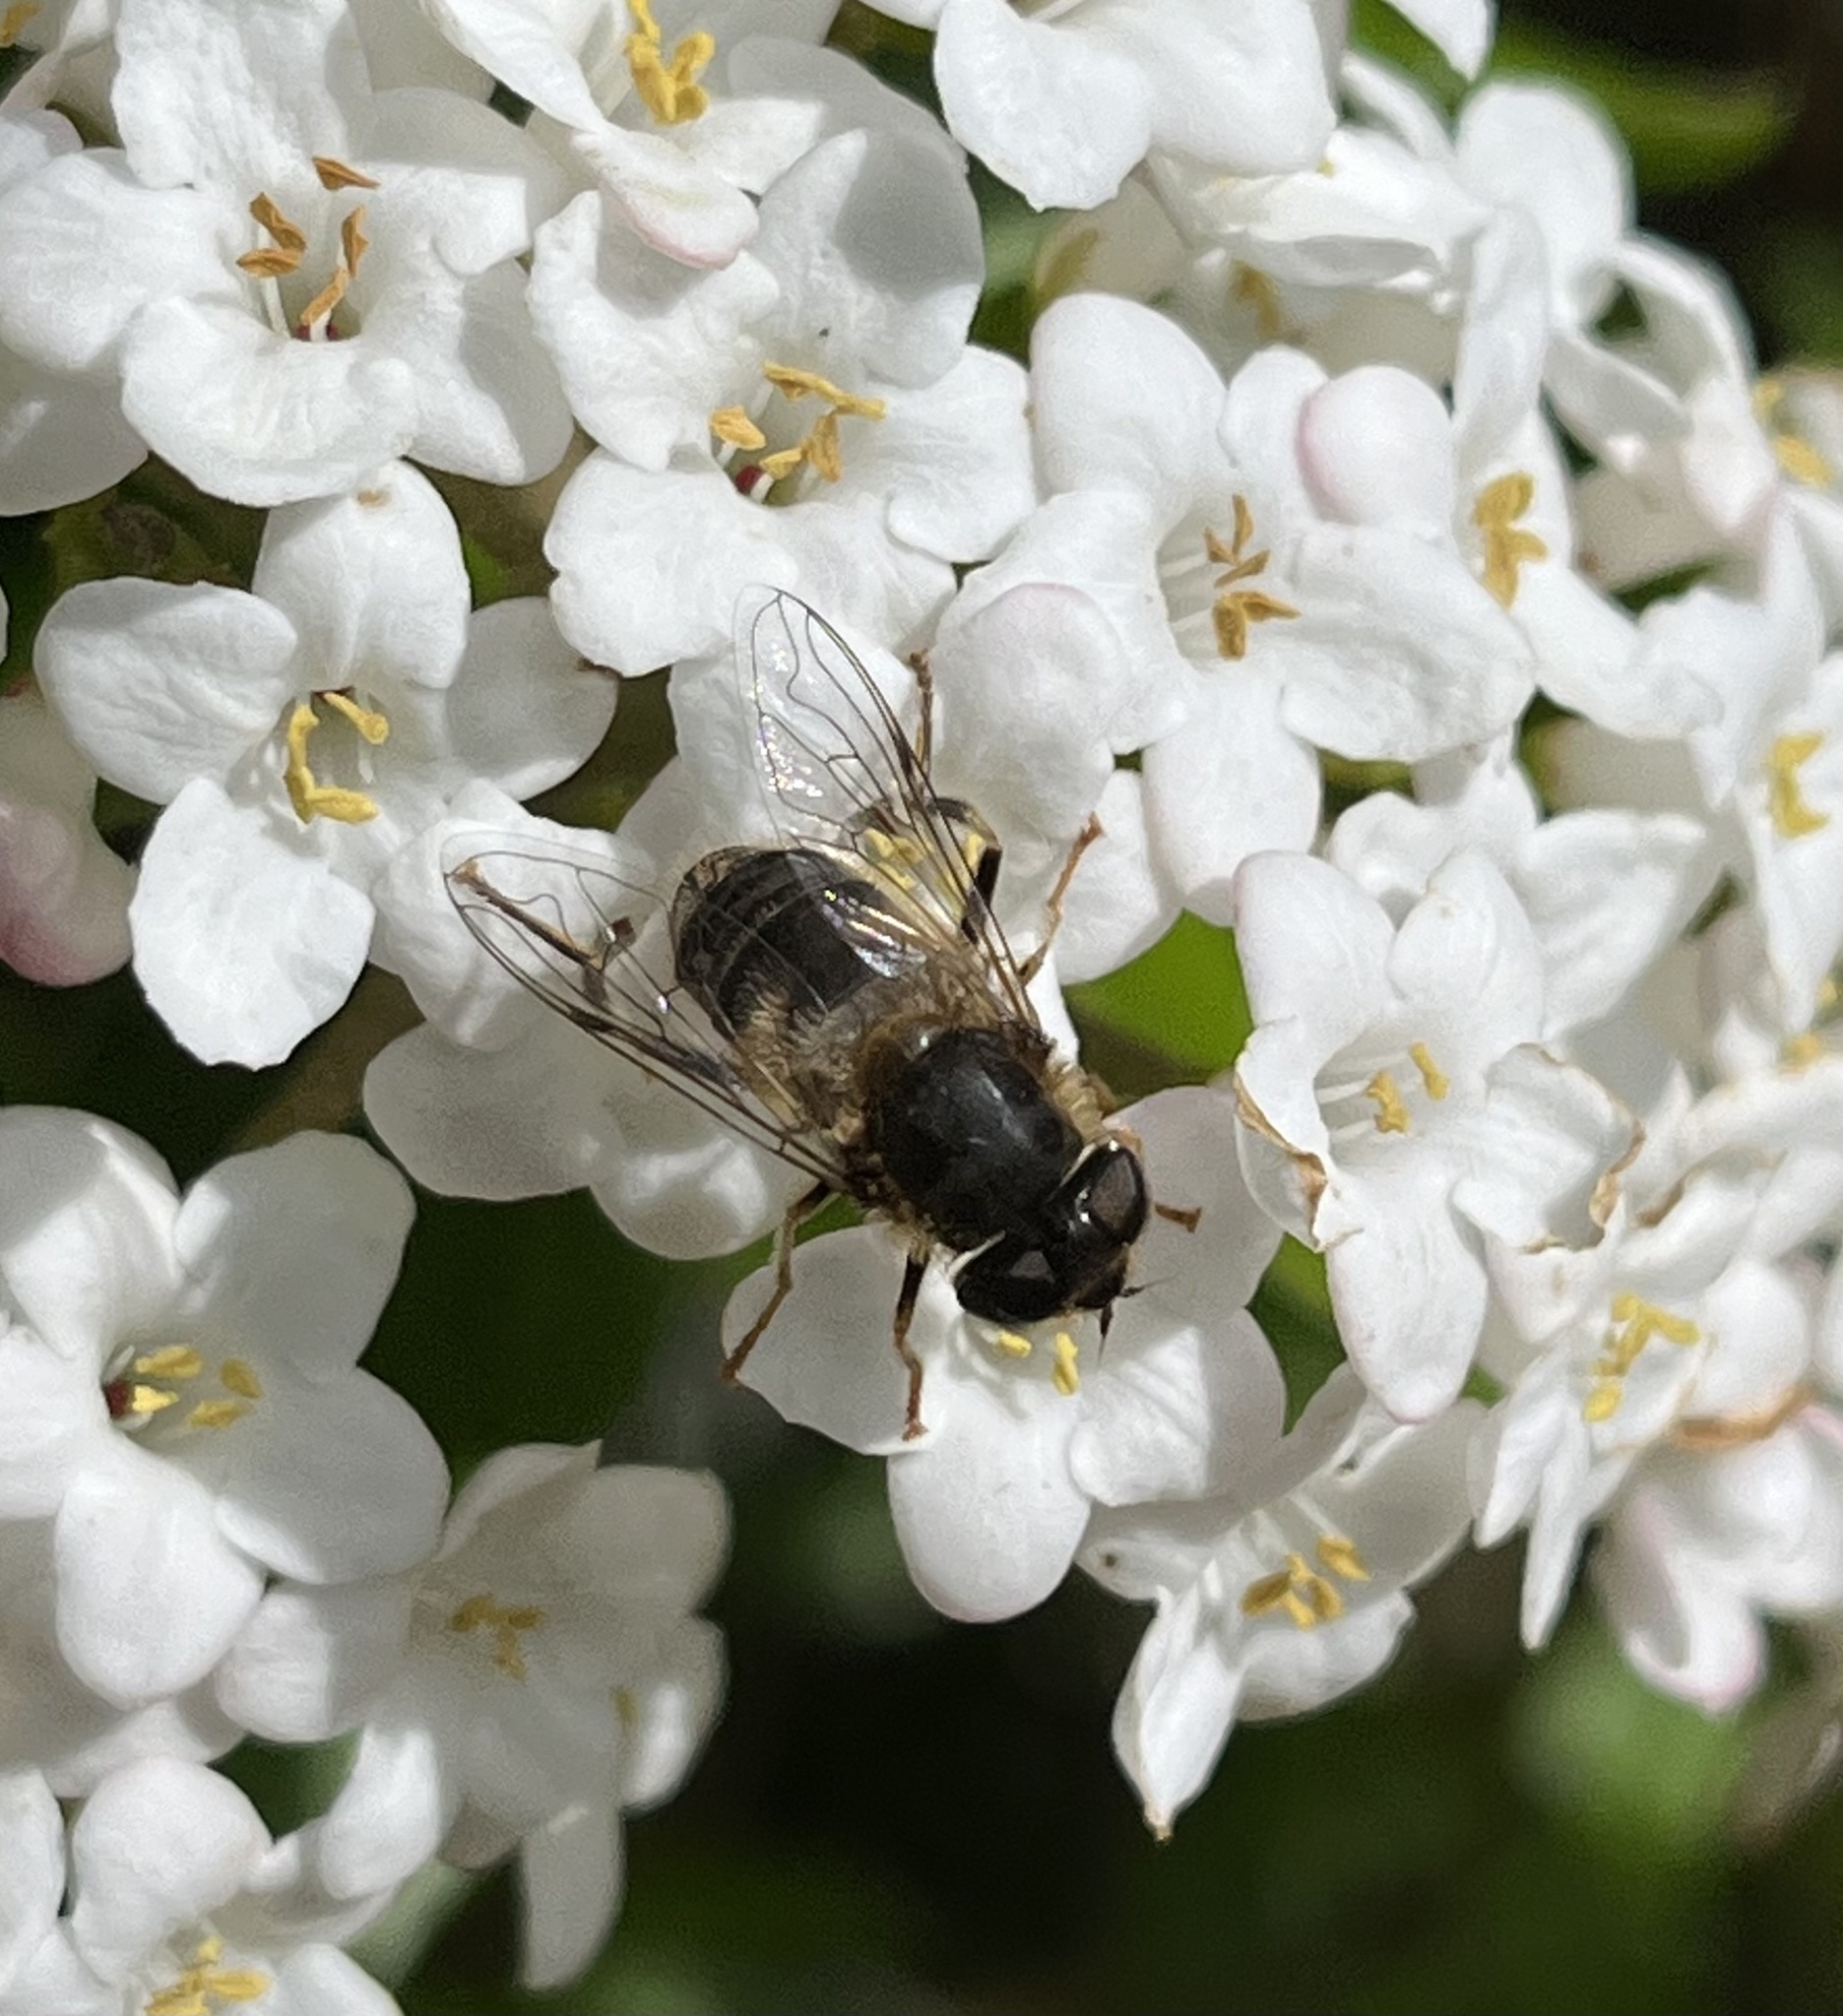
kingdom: Animalia
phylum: Arthropoda
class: Insecta
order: Diptera
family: Syrphidae
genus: Eristalis
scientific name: Eristalis pertinax
